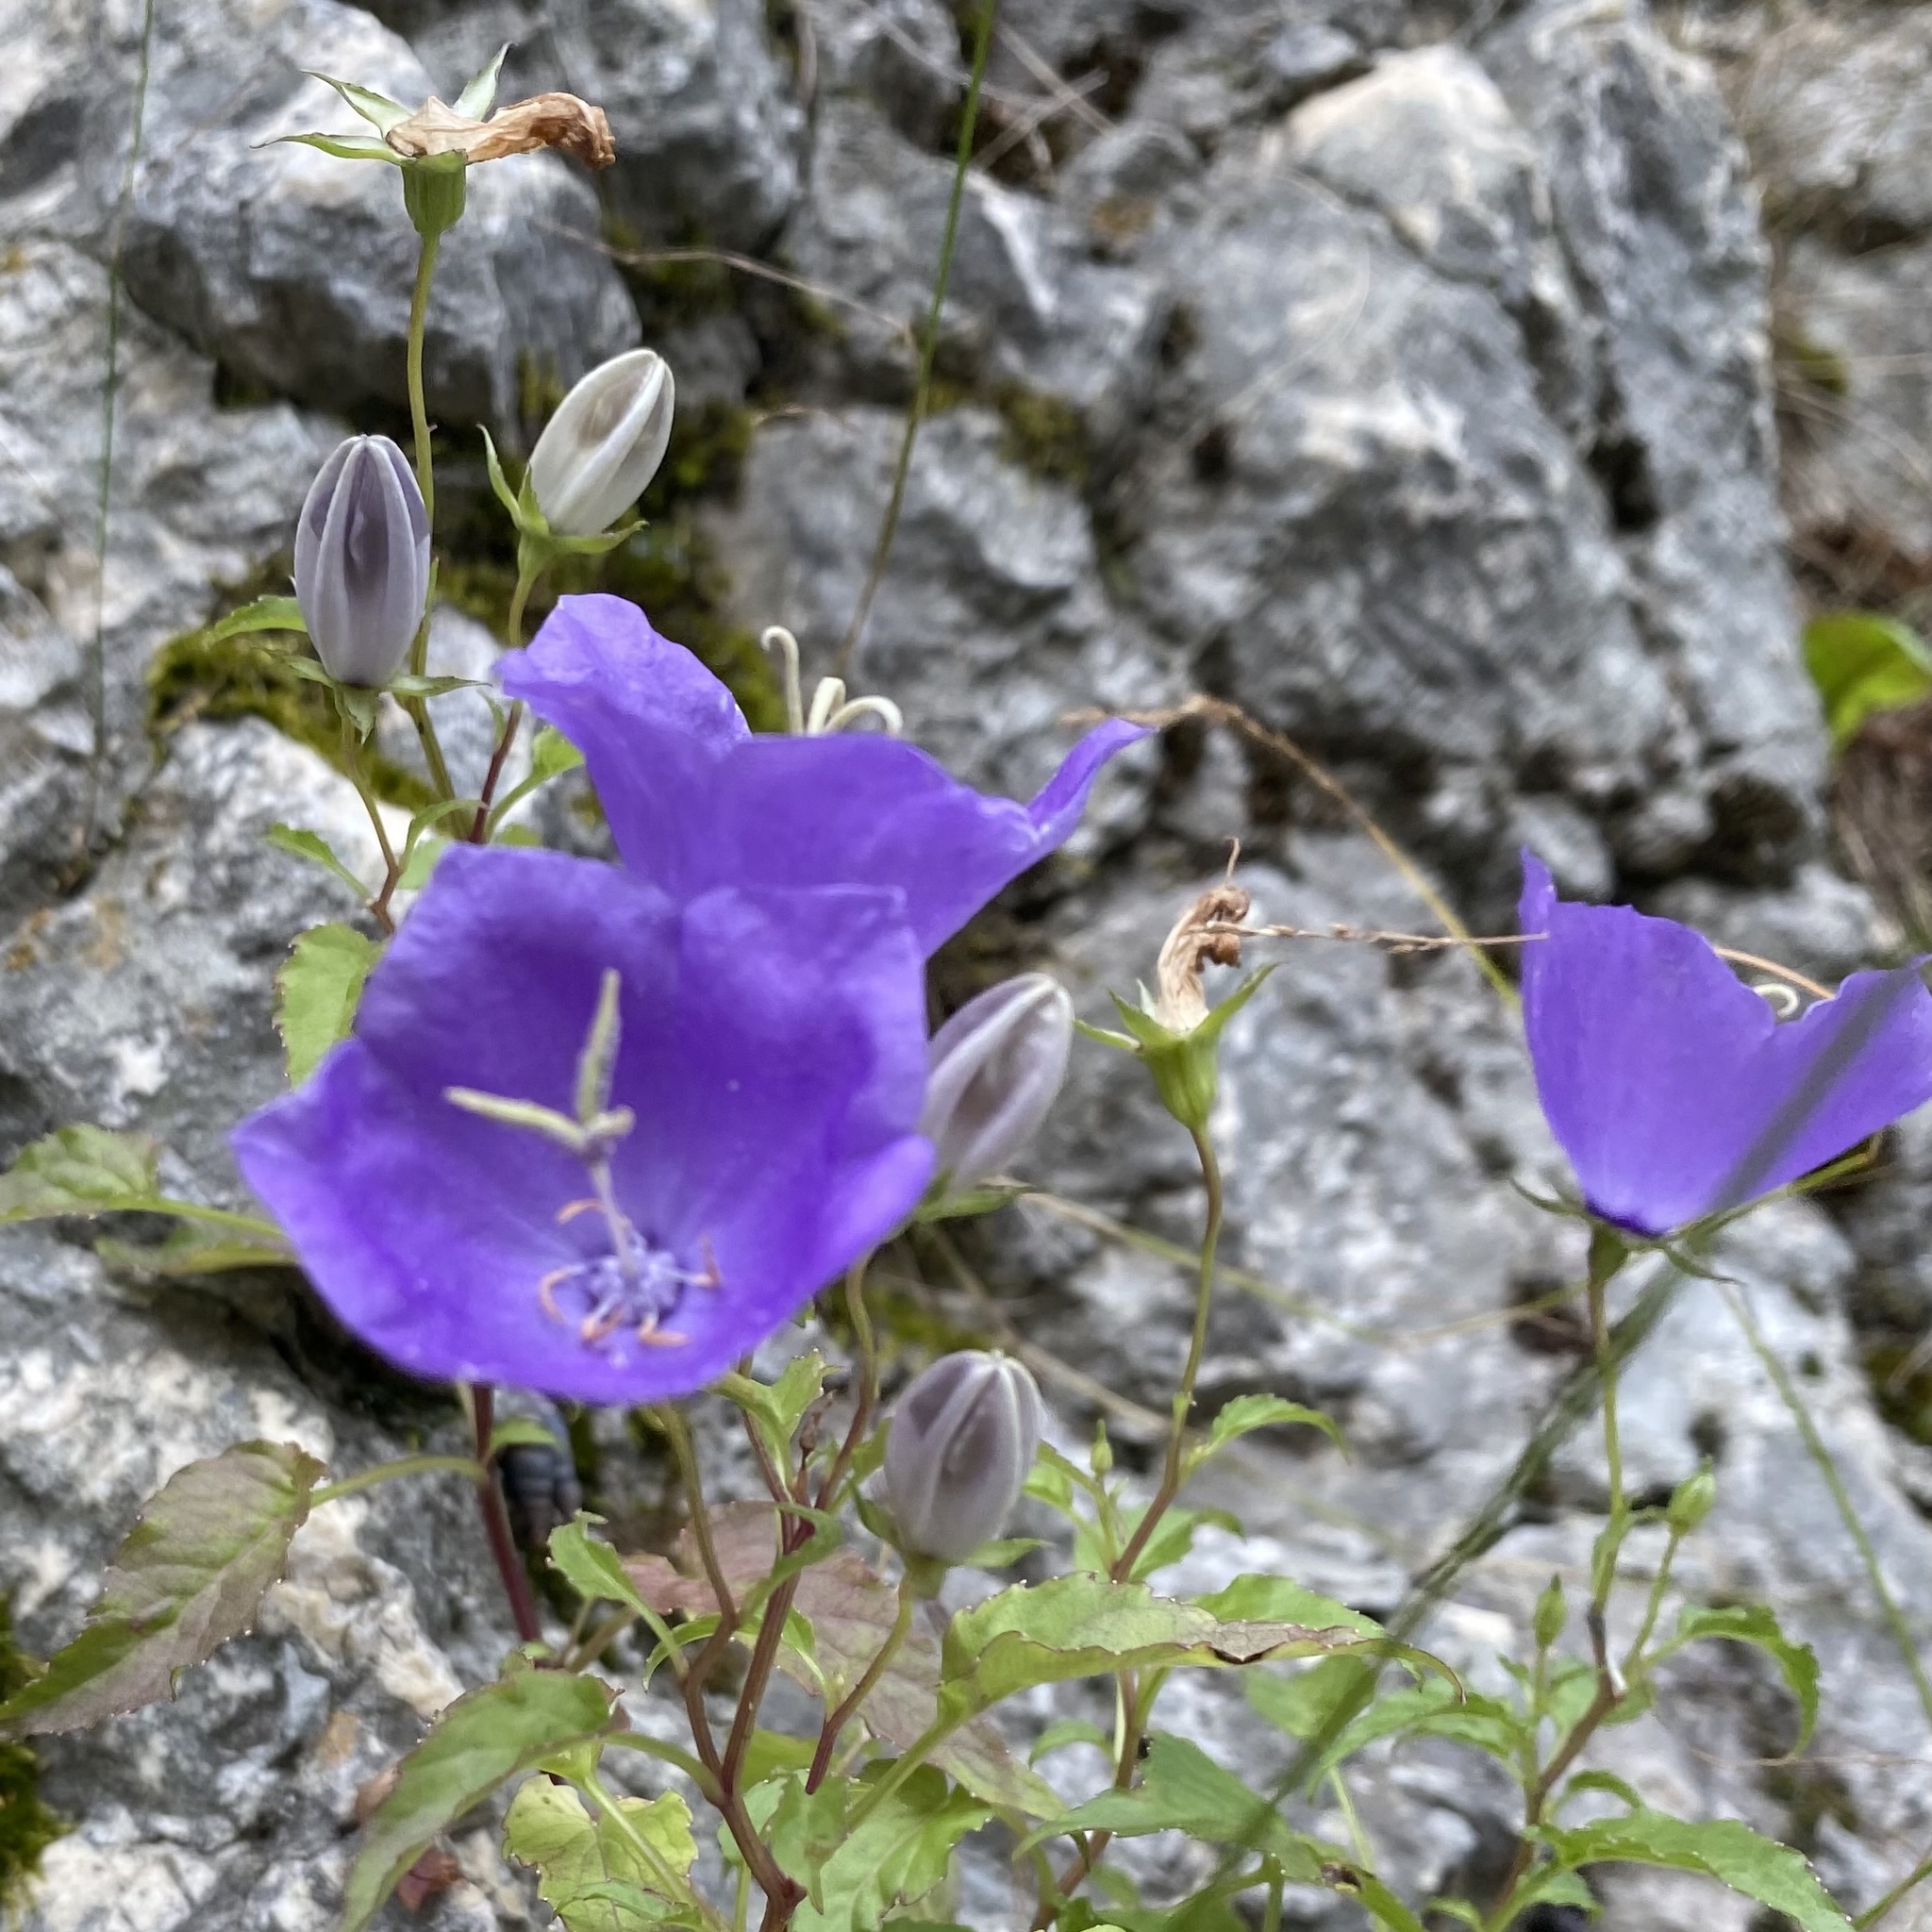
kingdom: Plantae
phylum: Tracheophyta
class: Magnoliopsida
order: Asterales
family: Campanulaceae
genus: Campanula
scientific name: Campanula carpatica
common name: Tussock bellflower
